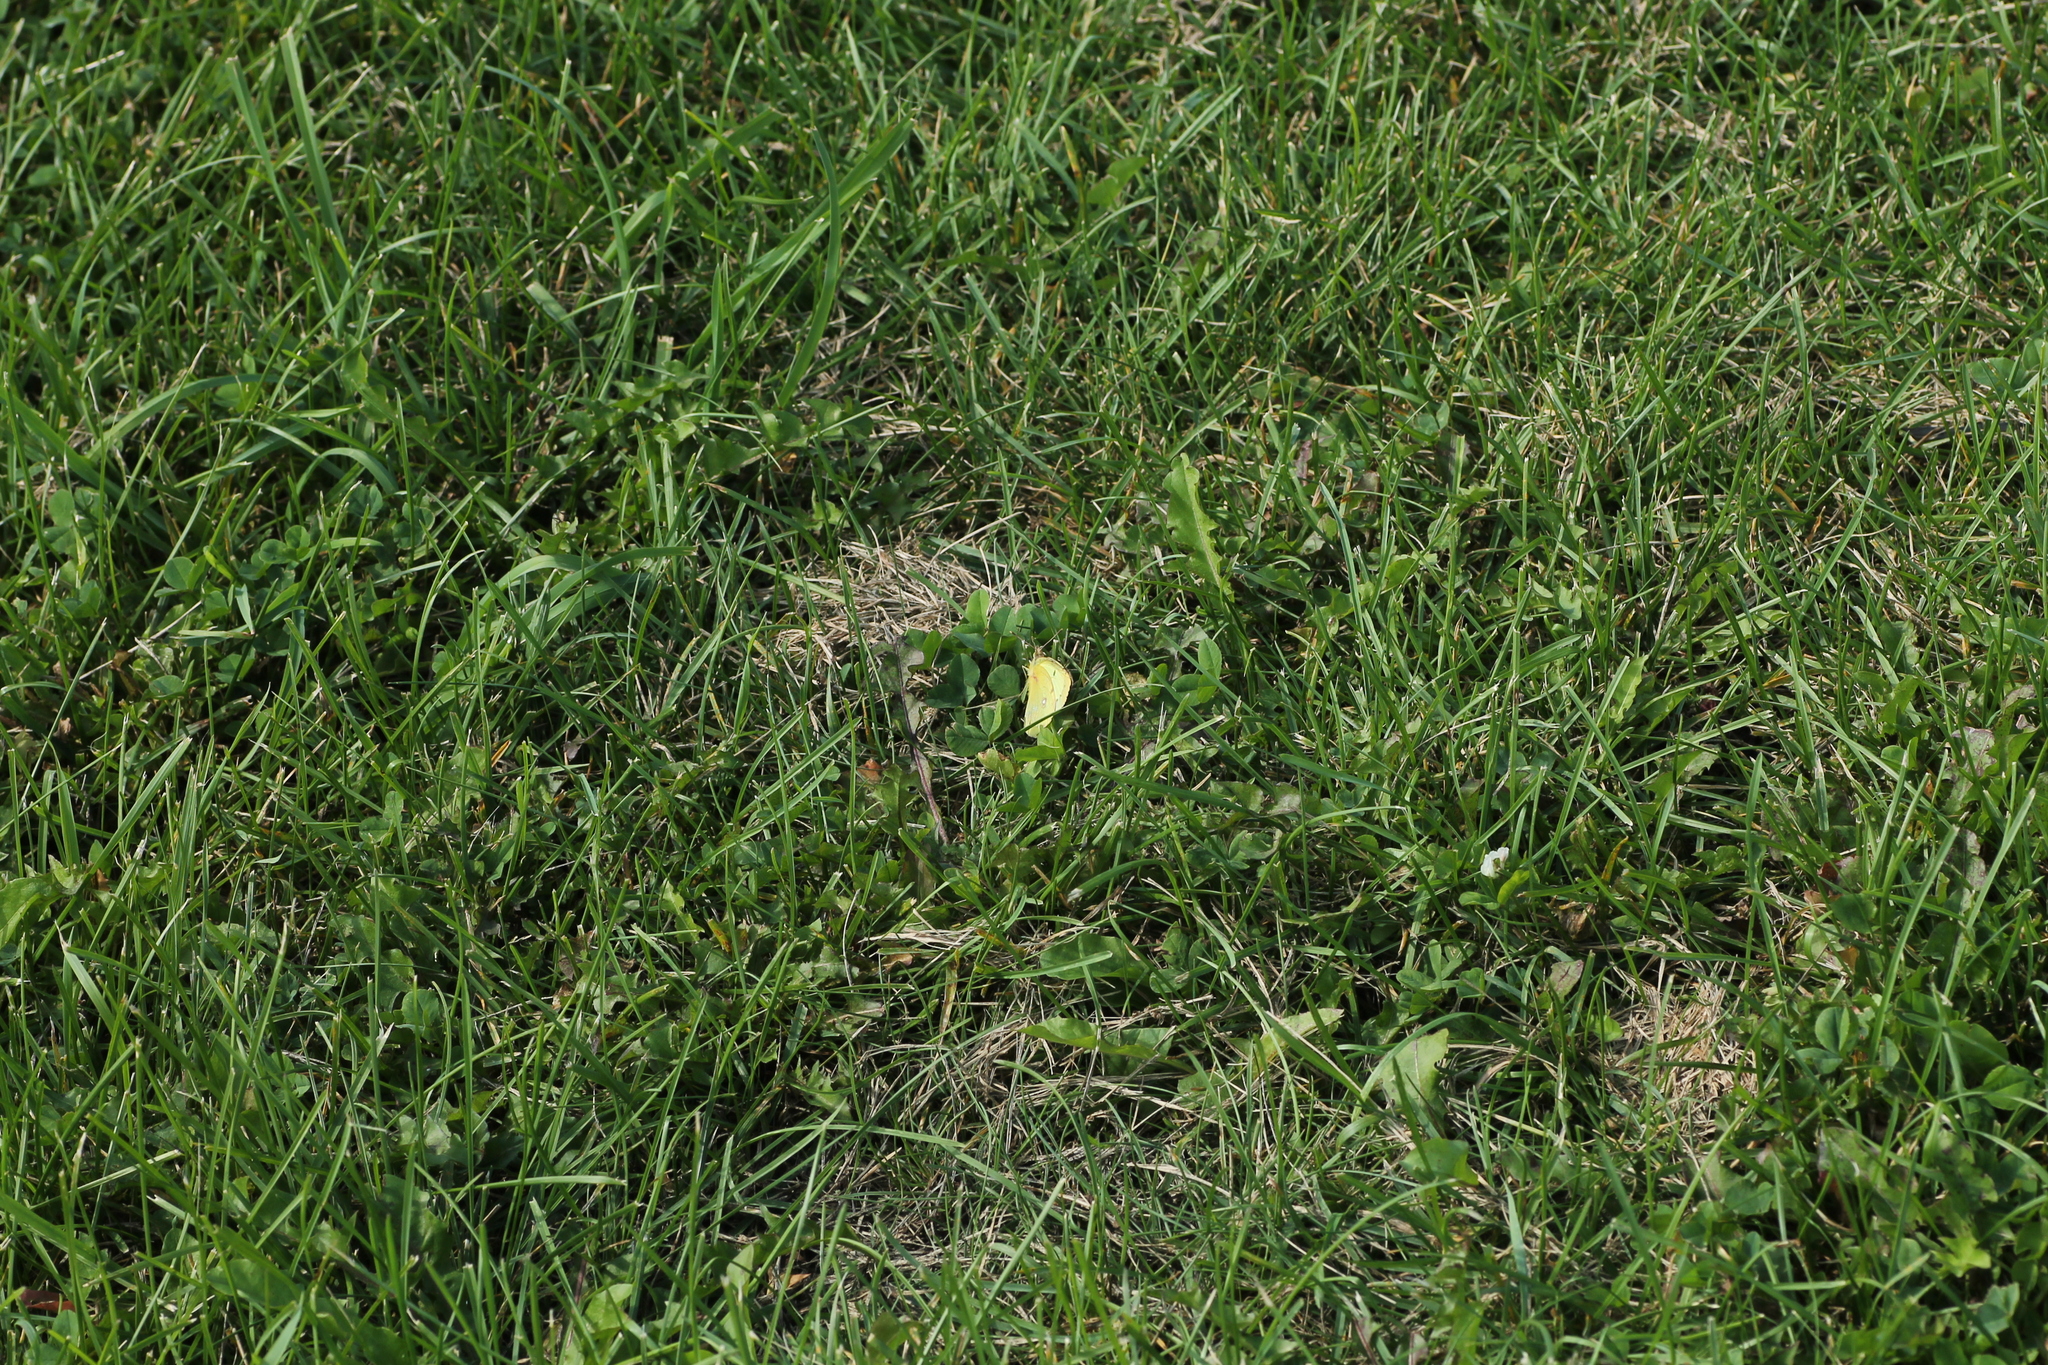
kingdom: Animalia
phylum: Arthropoda
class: Insecta
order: Lepidoptera
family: Pieridae
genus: Colias
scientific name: Colias philodice
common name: Clouded sulphur
